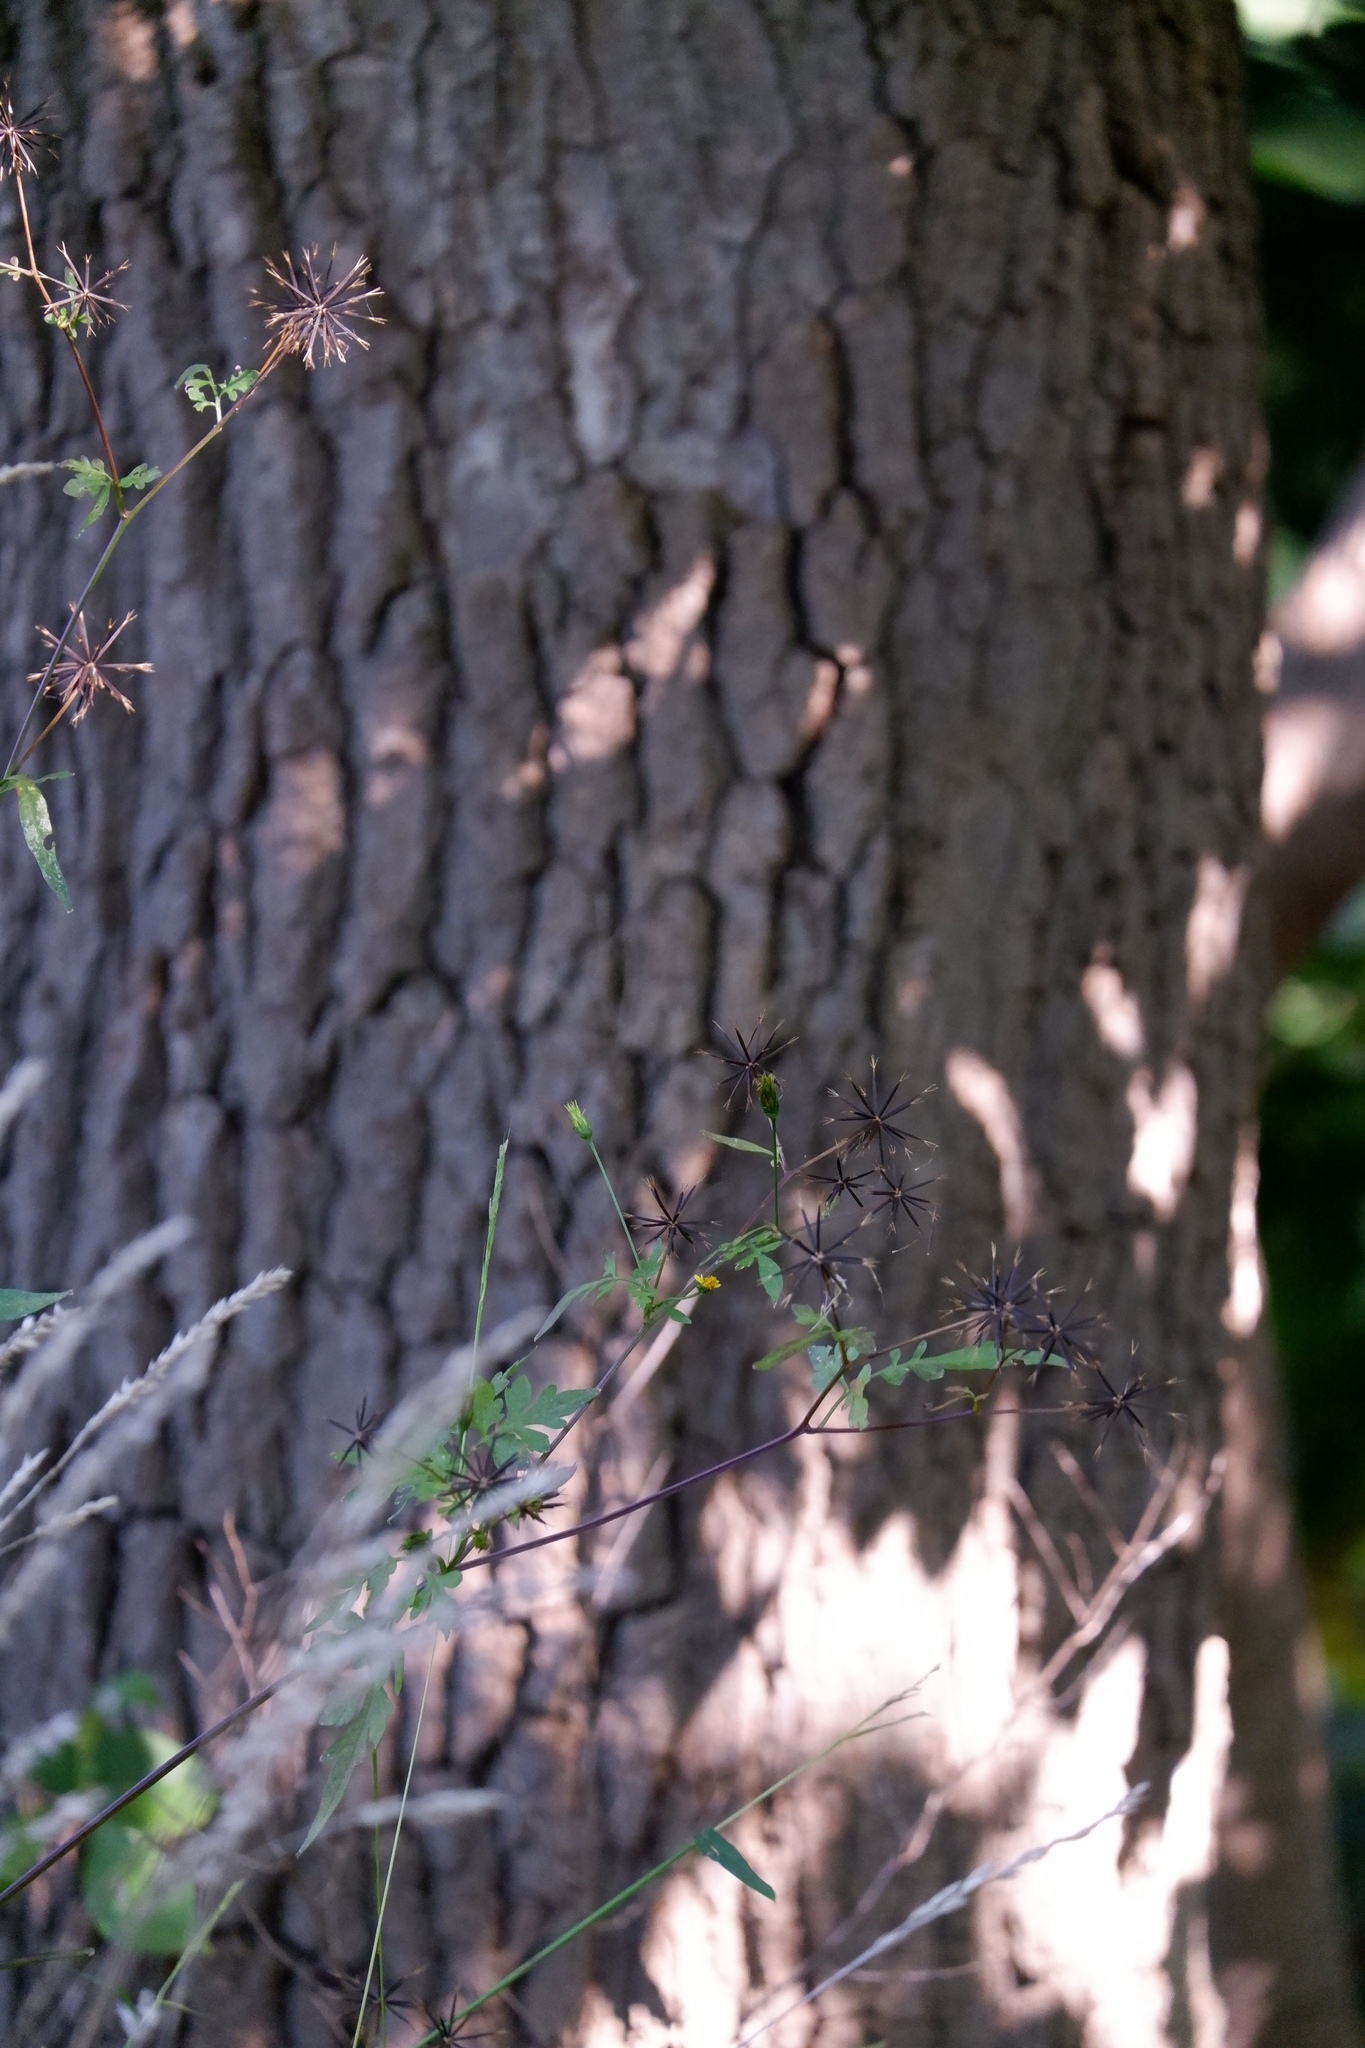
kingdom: Plantae
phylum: Tracheophyta
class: Magnoliopsida
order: Asterales
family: Asteraceae
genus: Bidens
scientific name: Bidens bipinnata
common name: Spanish-needles
